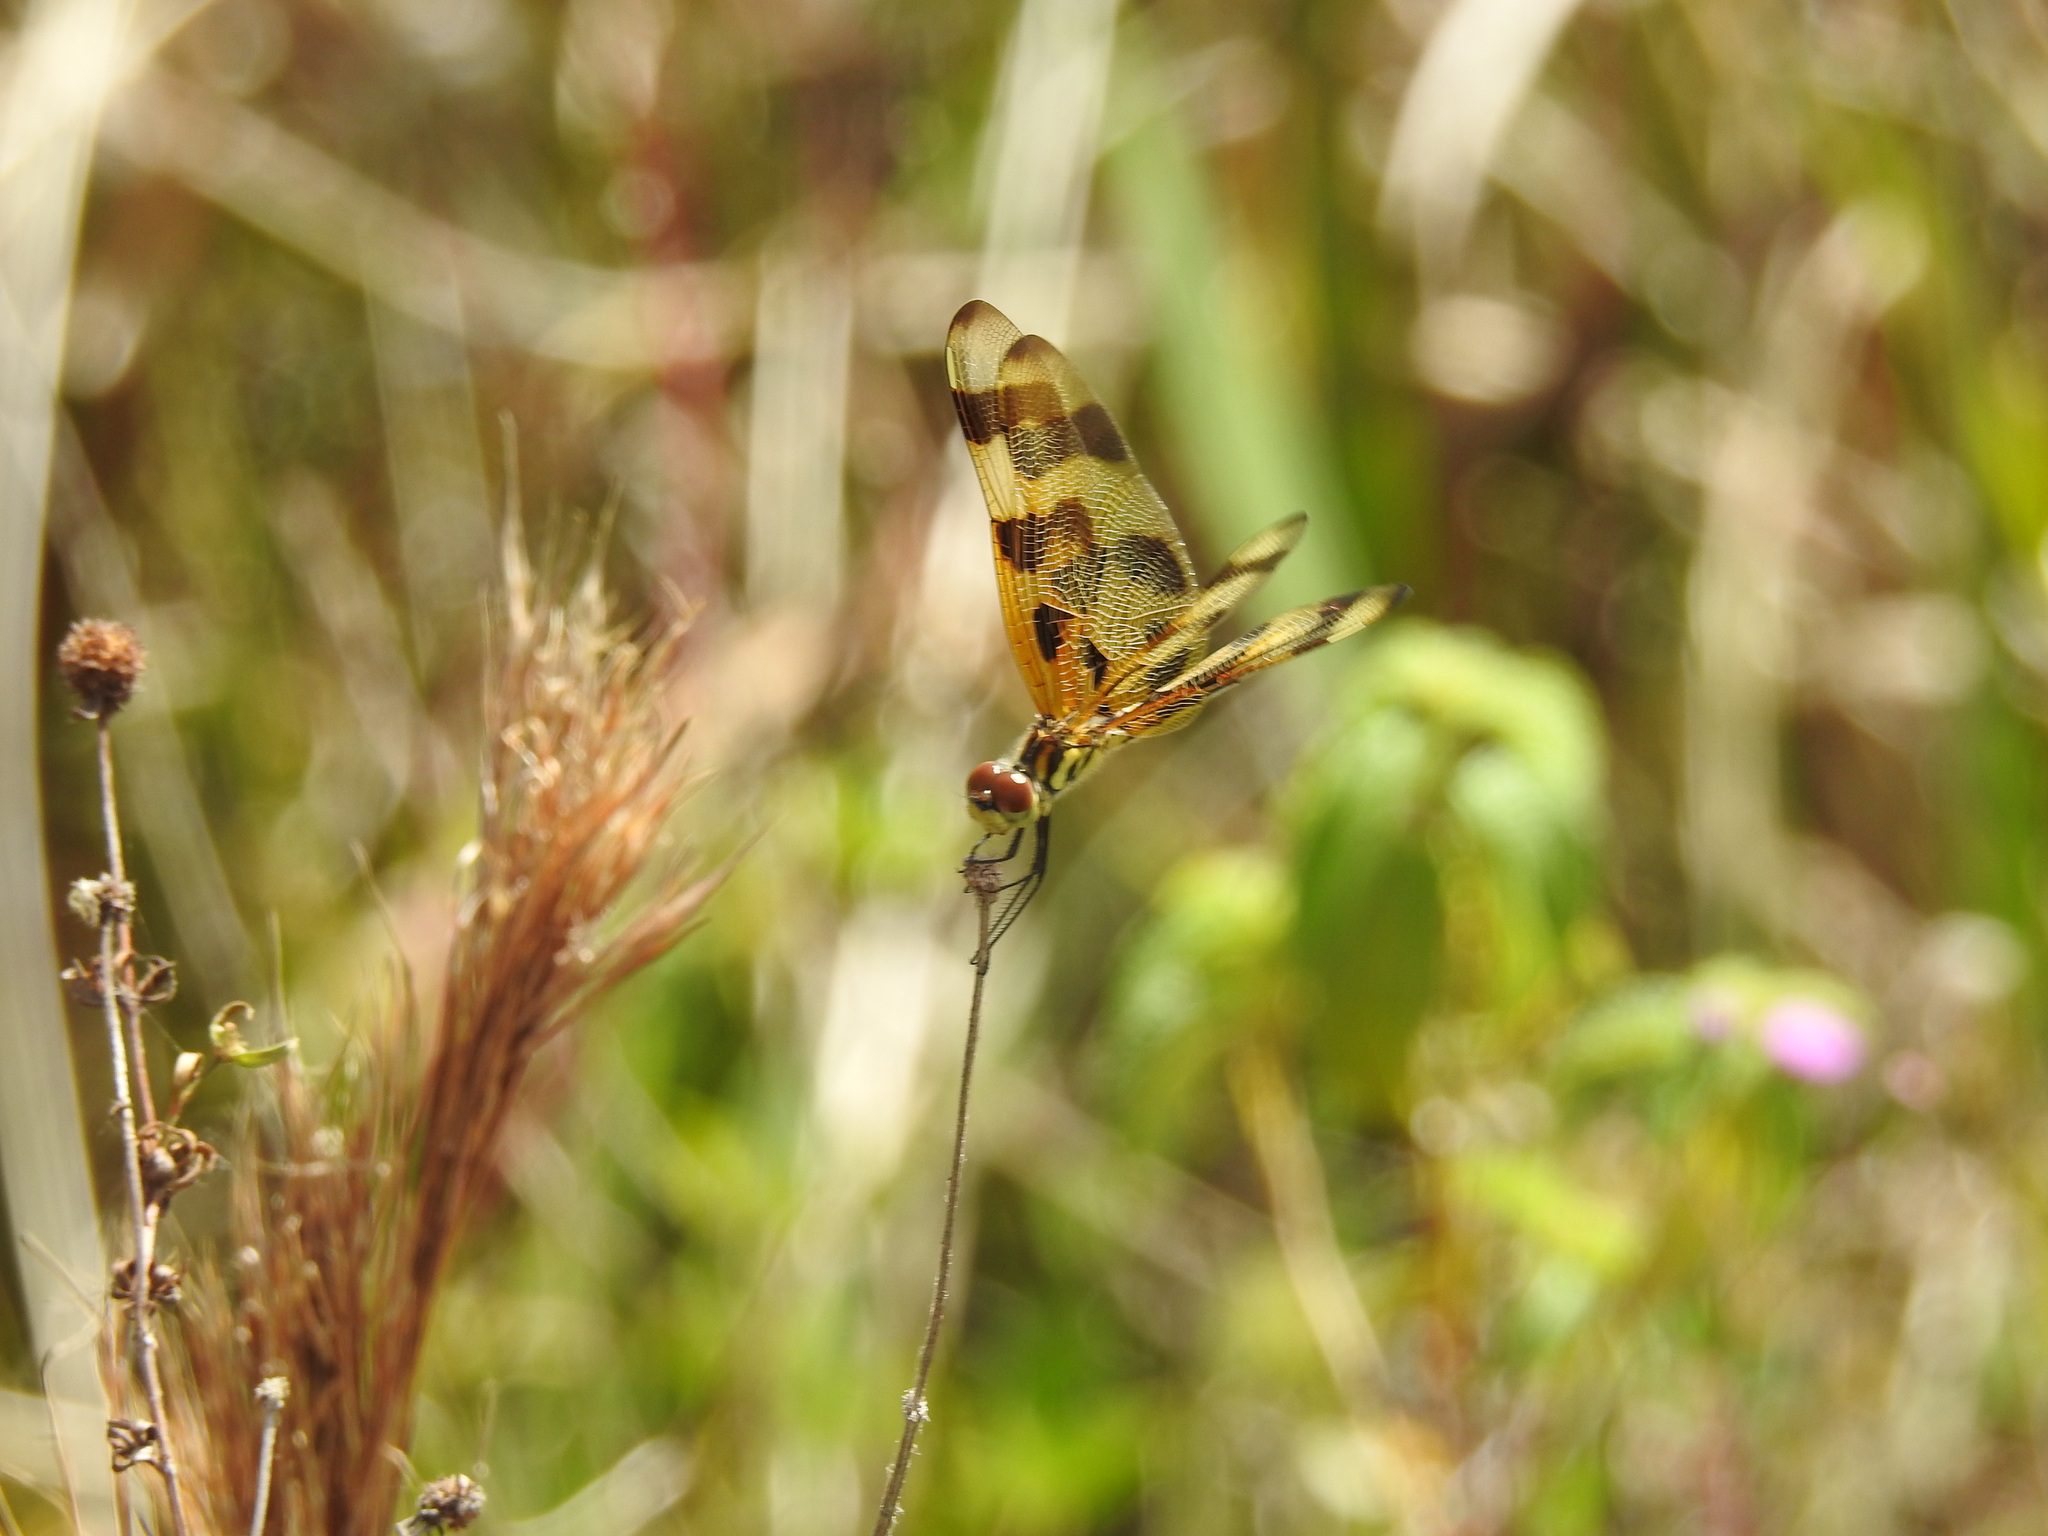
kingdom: Animalia
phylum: Arthropoda
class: Insecta
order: Odonata
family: Libellulidae
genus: Celithemis
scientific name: Celithemis eponina
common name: Halloween pennant
